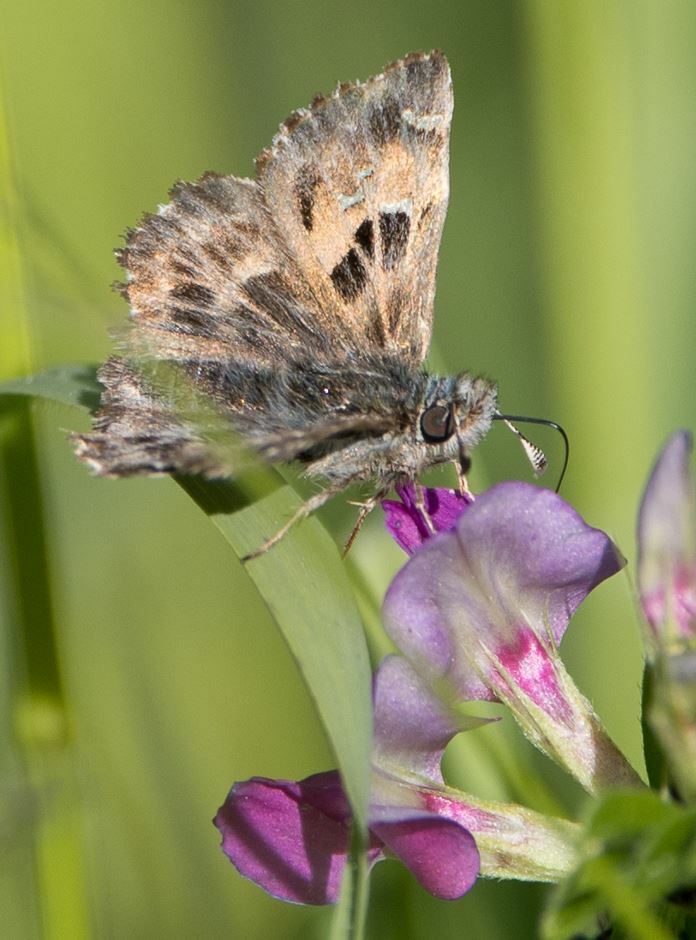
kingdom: Animalia
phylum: Arthropoda
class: Insecta
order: Lepidoptera
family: Hesperiidae
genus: Carcharodus
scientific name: Carcharodus alceae
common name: Mallow skipper
